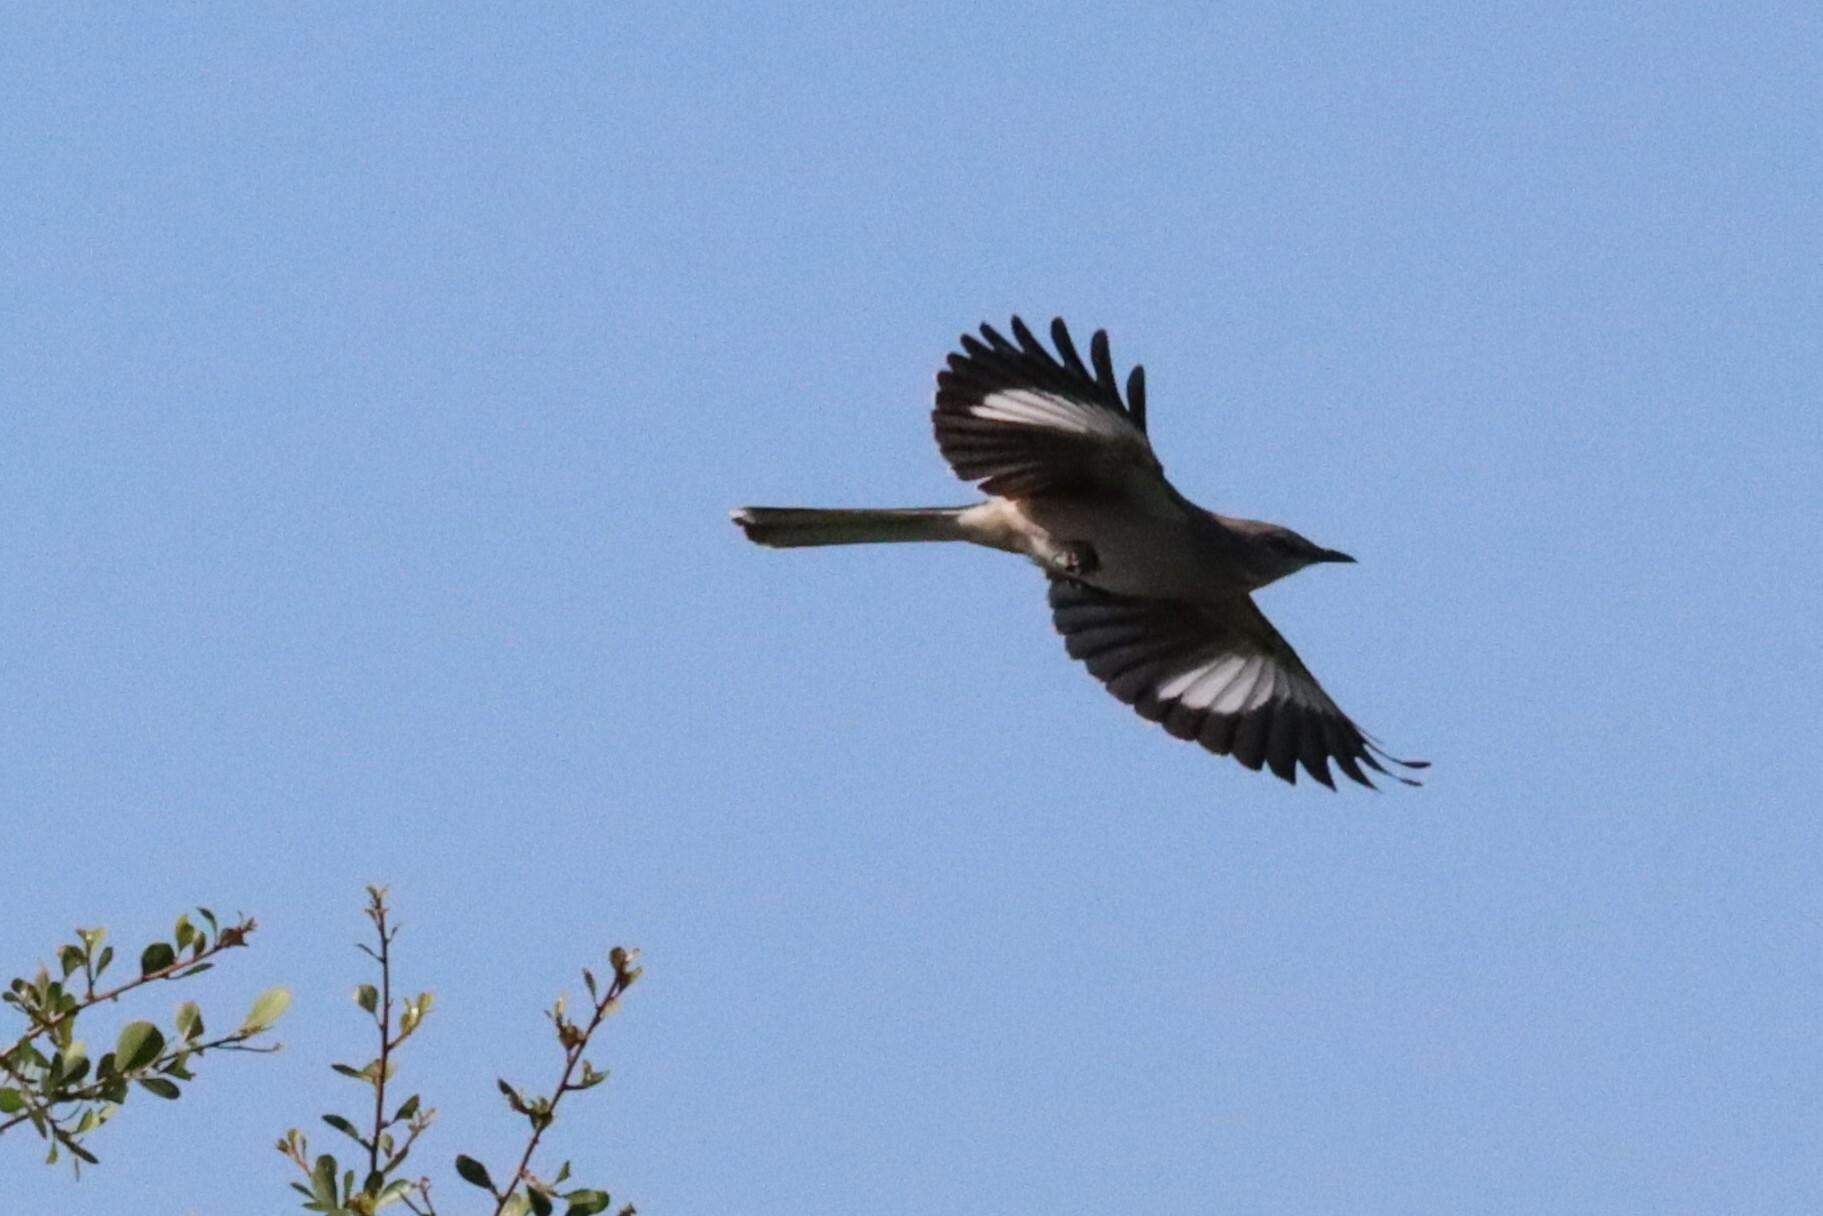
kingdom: Animalia
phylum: Chordata
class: Aves
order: Passeriformes
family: Mimidae
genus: Mimus
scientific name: Mimus polyglottos
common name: Northern mockingbird
